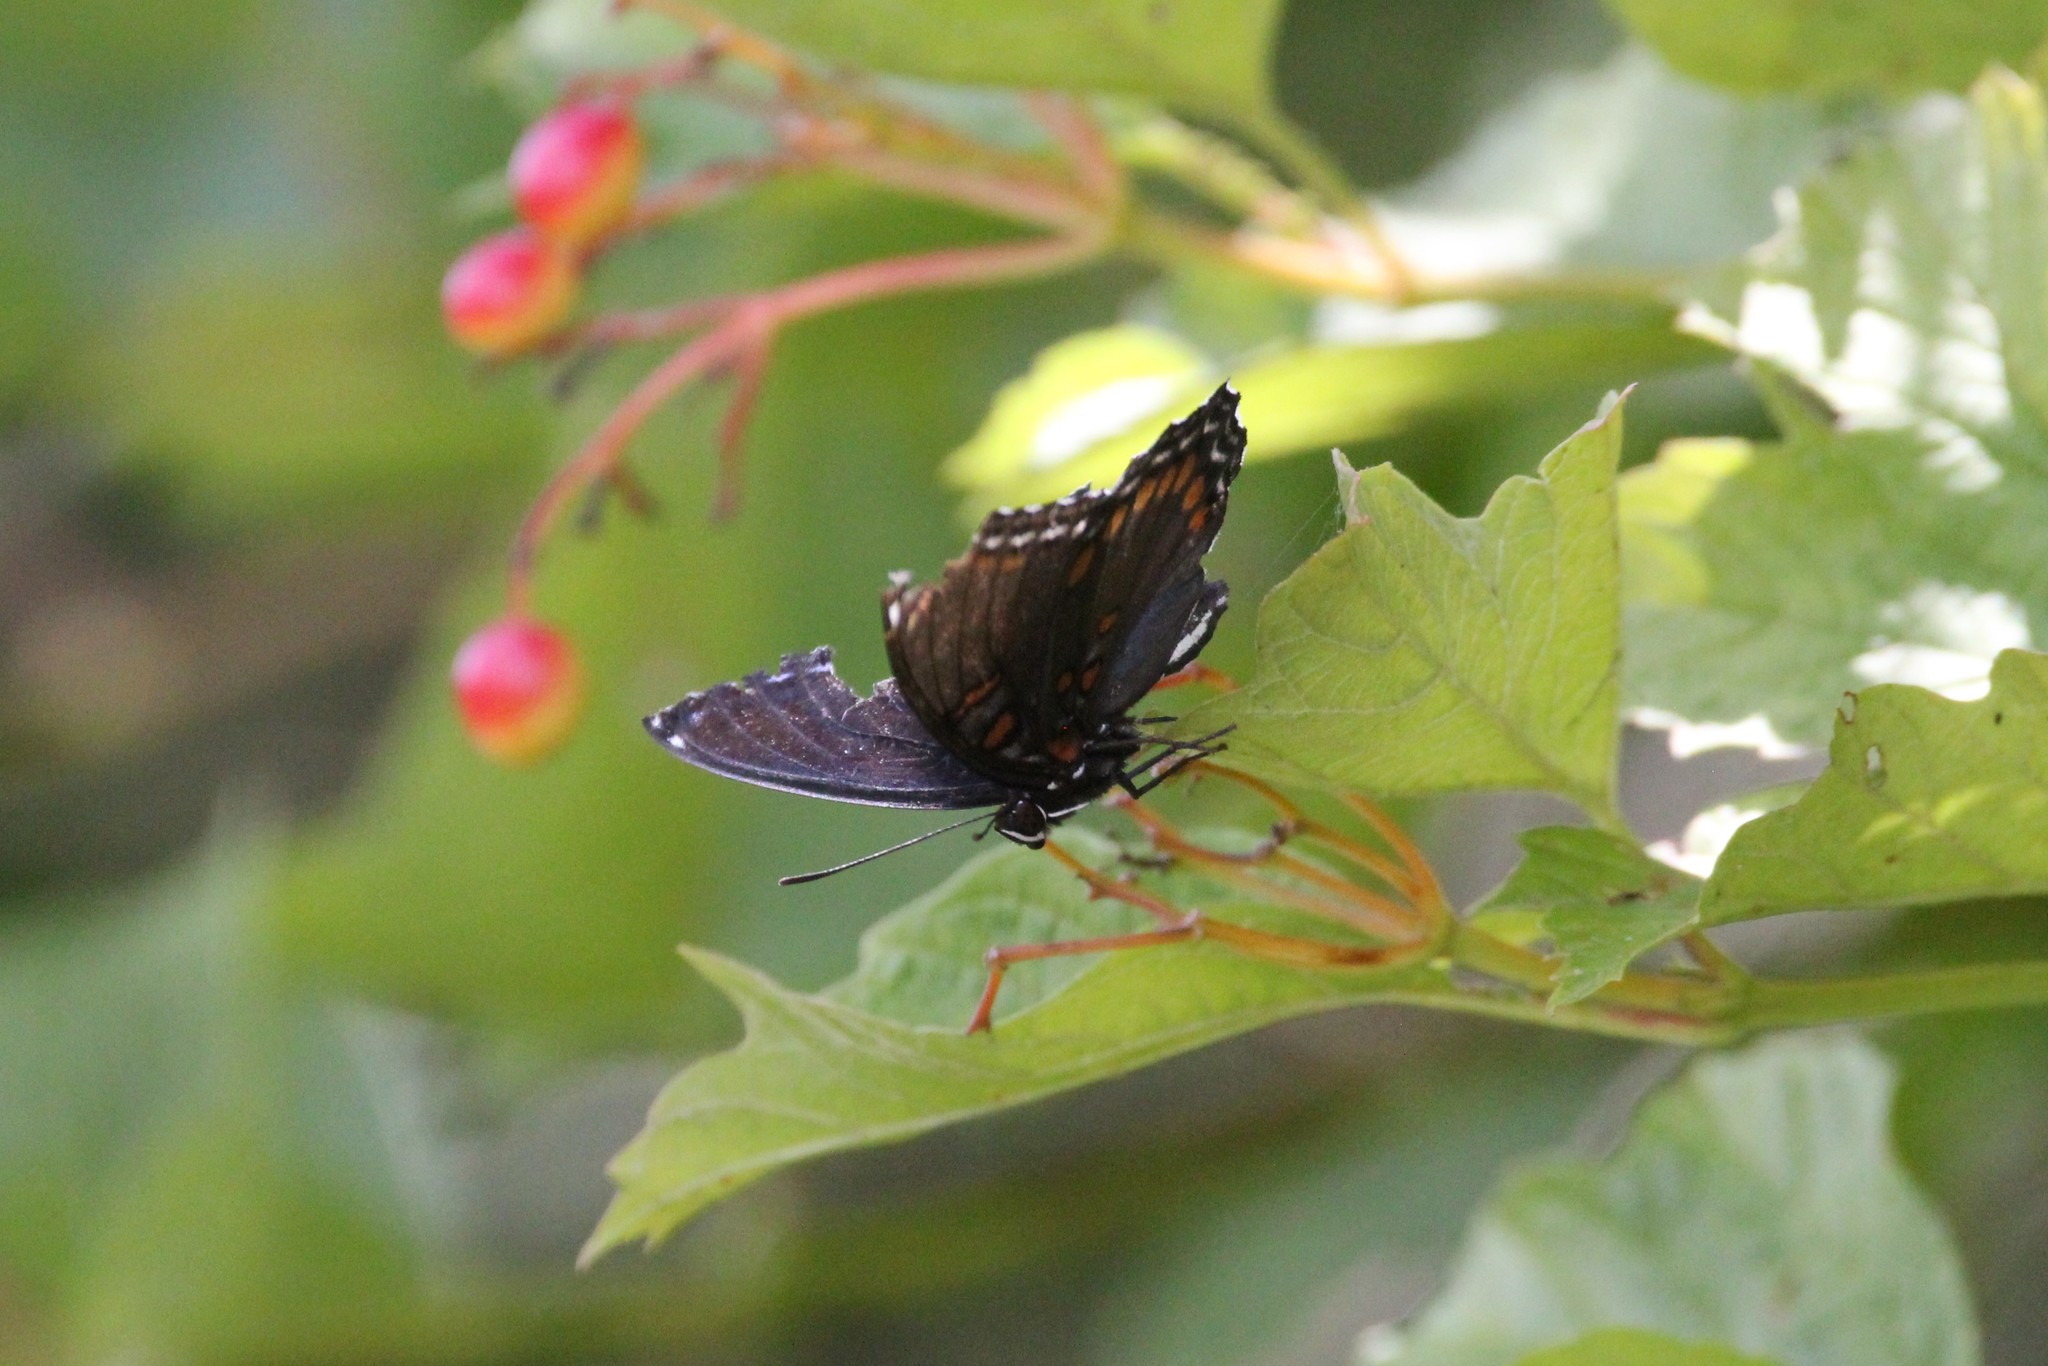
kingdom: Animalia
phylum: Arthropoda
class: Insecta
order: Lepidoptera
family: Nymphalidae
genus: Limenitis
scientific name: Limenitis astyanax
